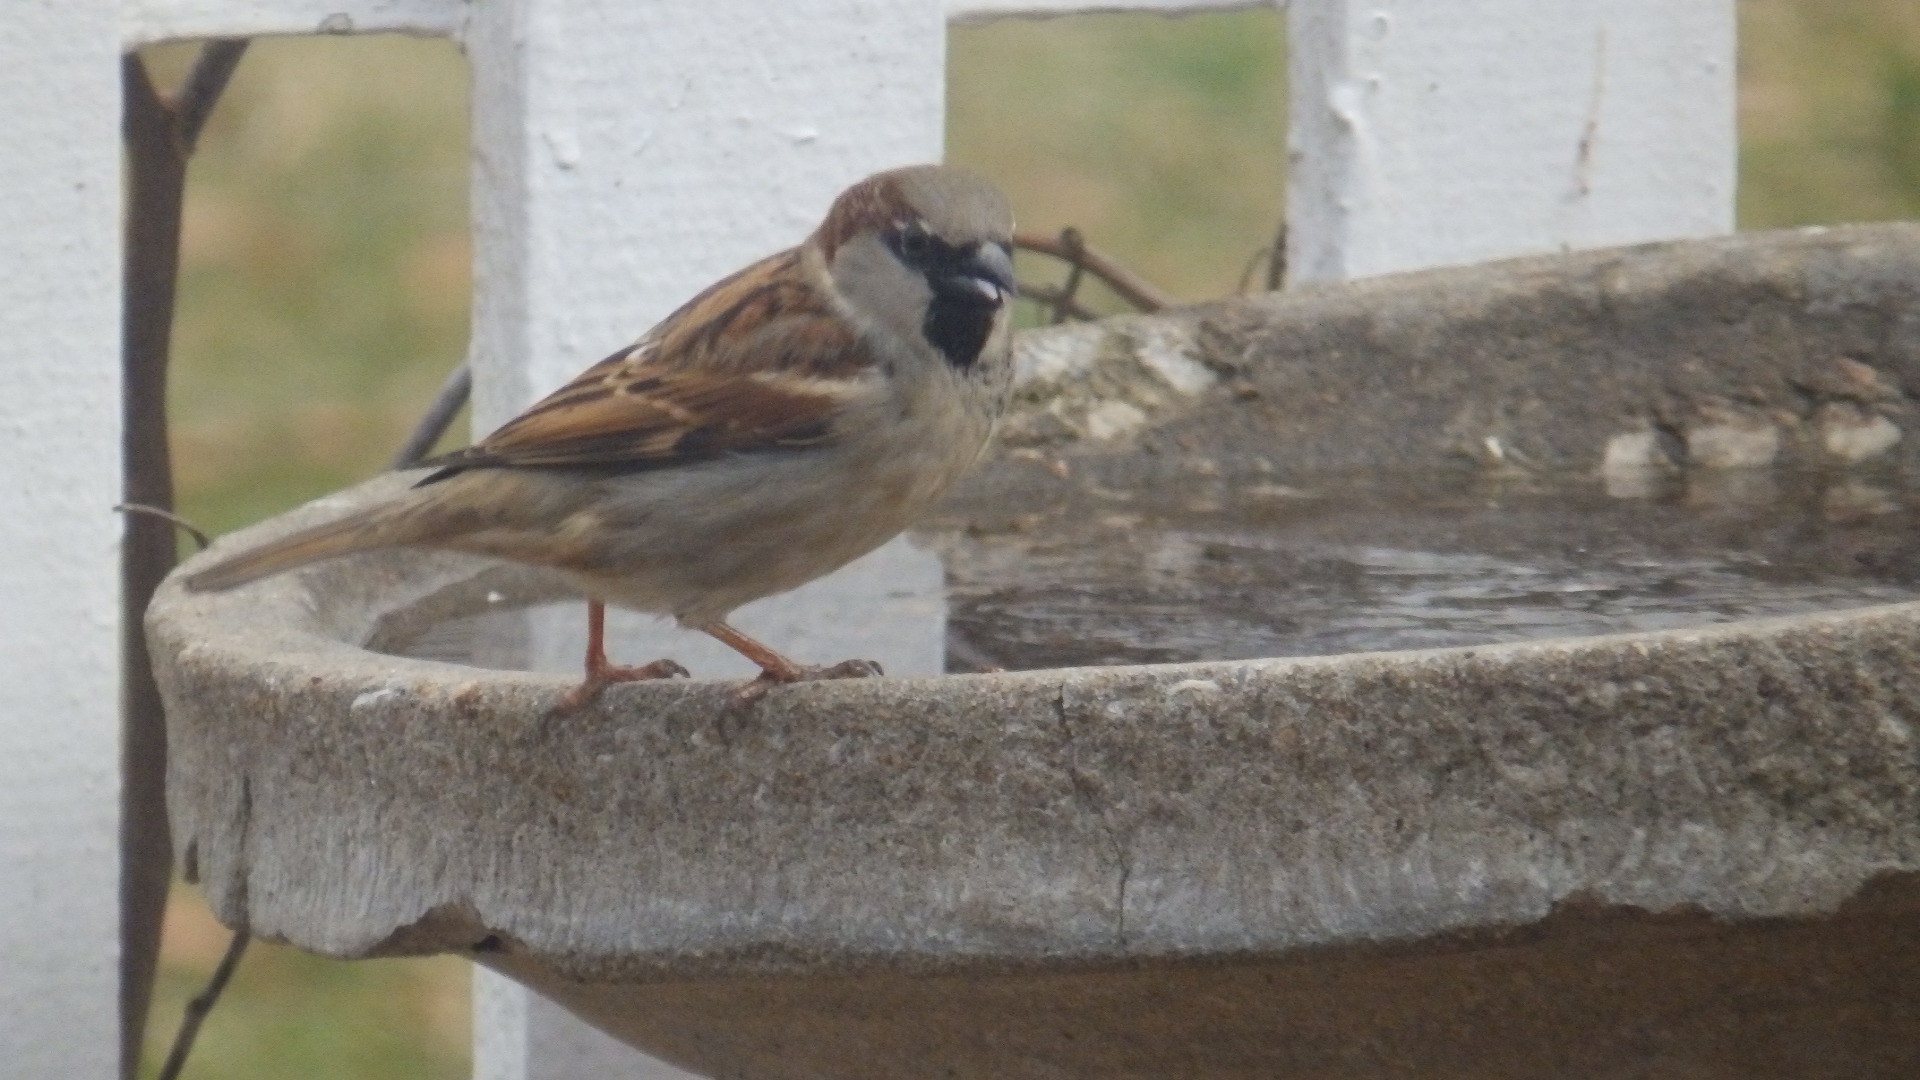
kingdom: Animalia
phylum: Chordata
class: Aves
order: Passeriformes
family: Passeridae
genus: Passer
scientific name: Passer domesticus
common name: House sparrow
